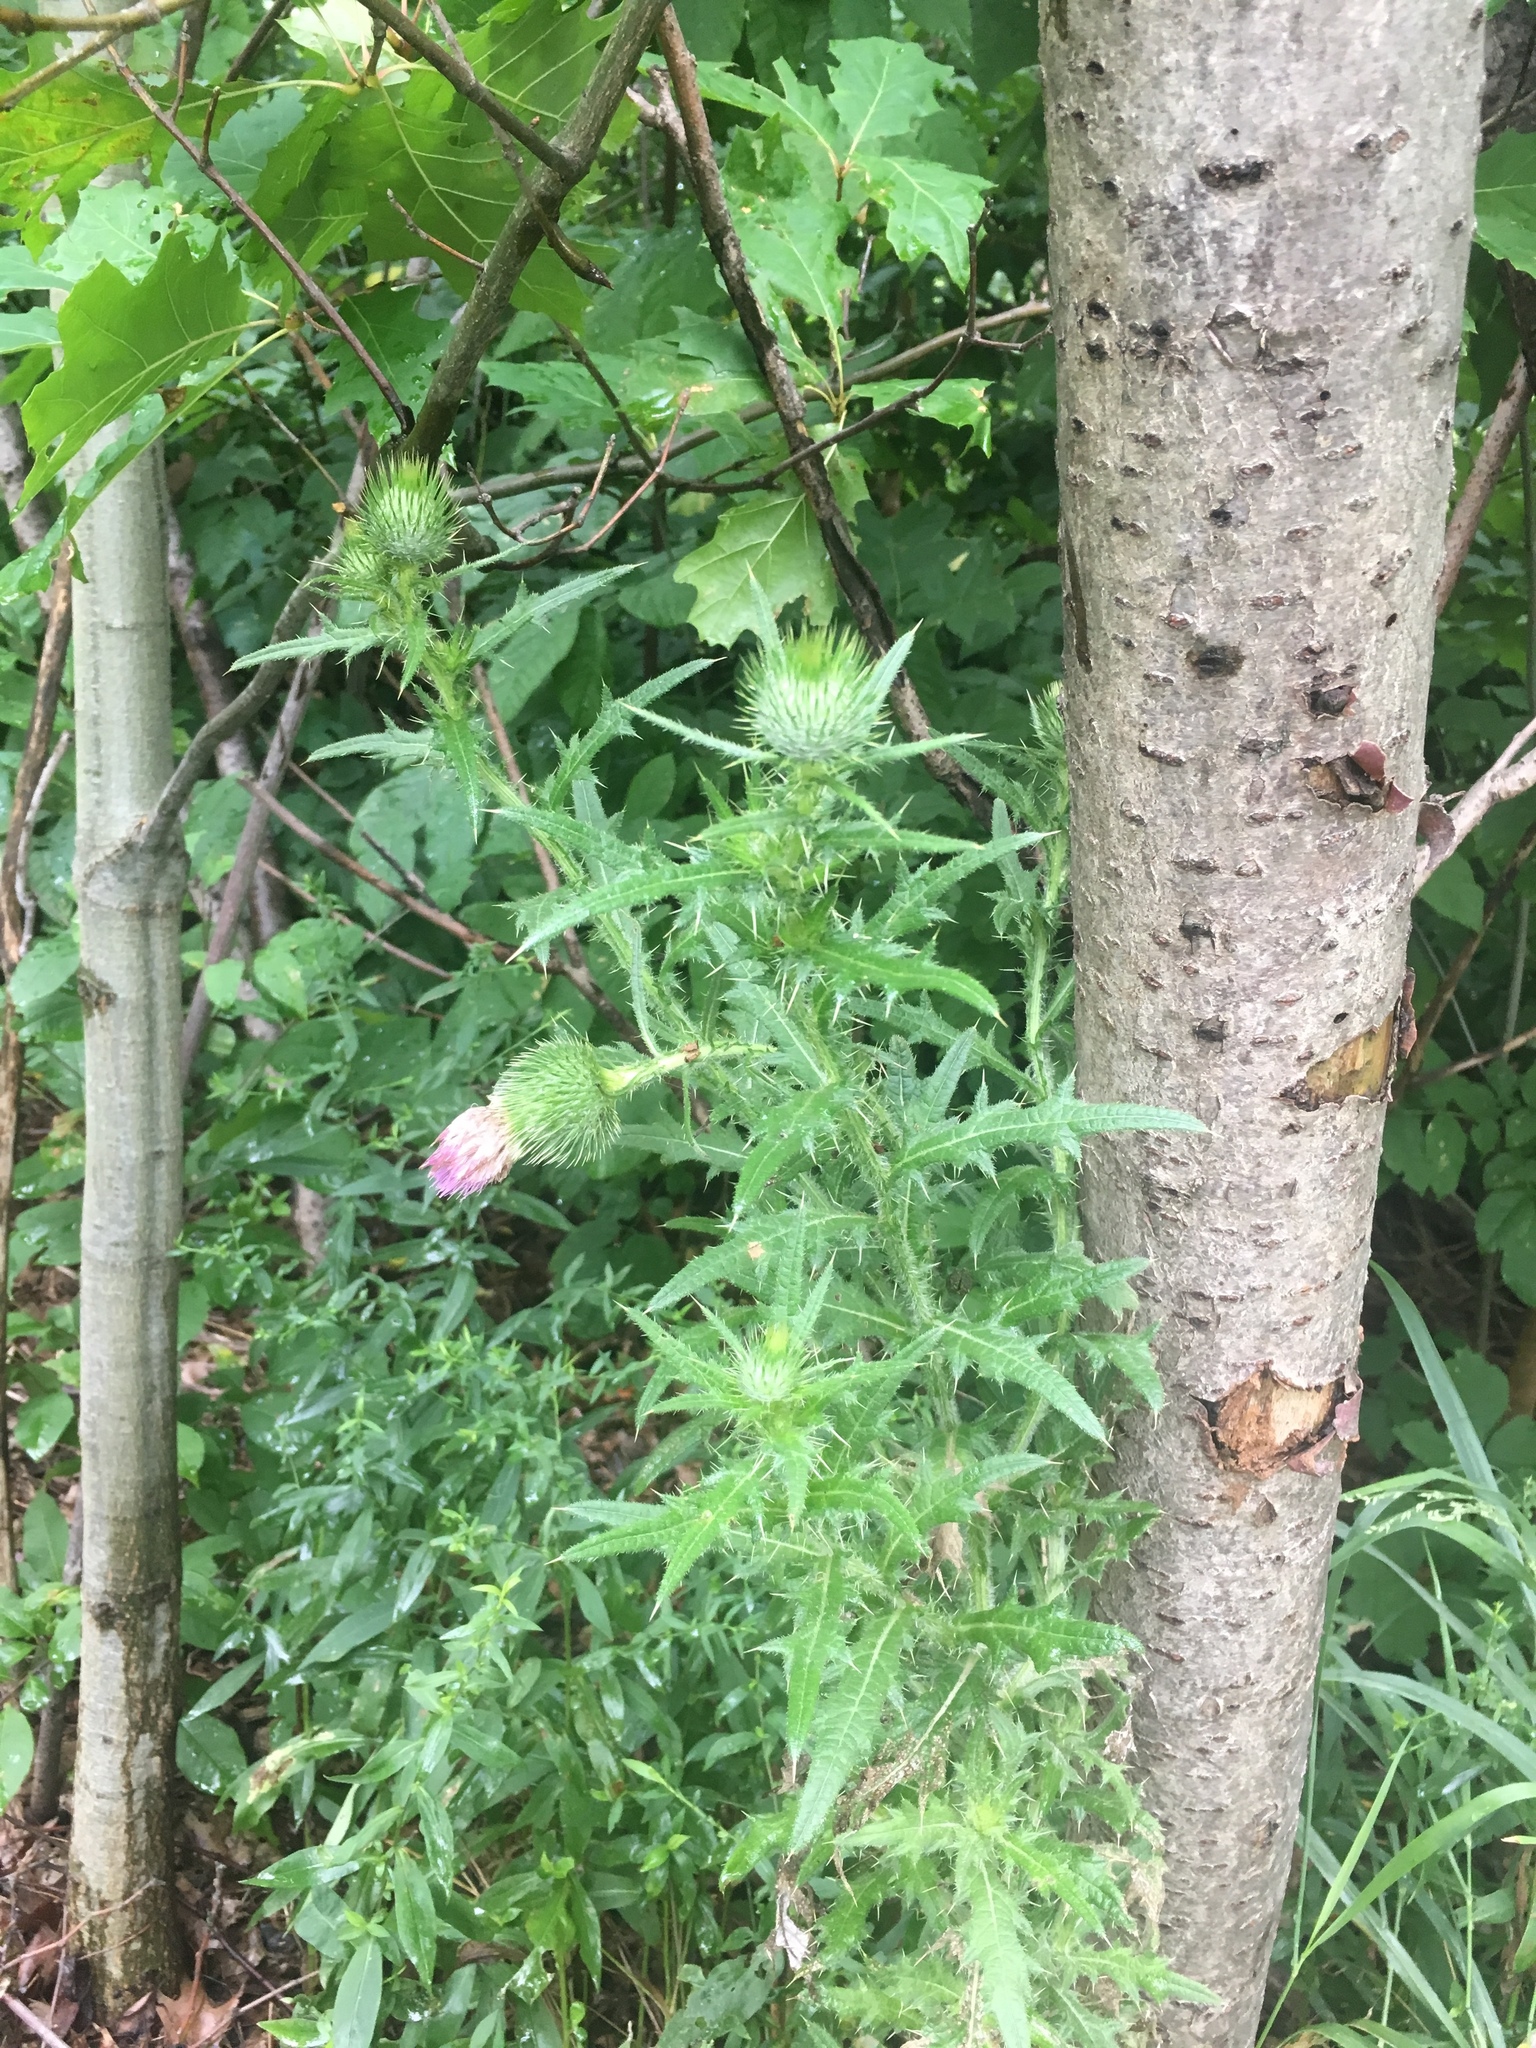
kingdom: Plantae
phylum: Tracheophyta
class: Magnoliopsida
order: Asterales
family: Asteraceae
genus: Cirsium
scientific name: Cirsium vulgare
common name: Bull thistle
